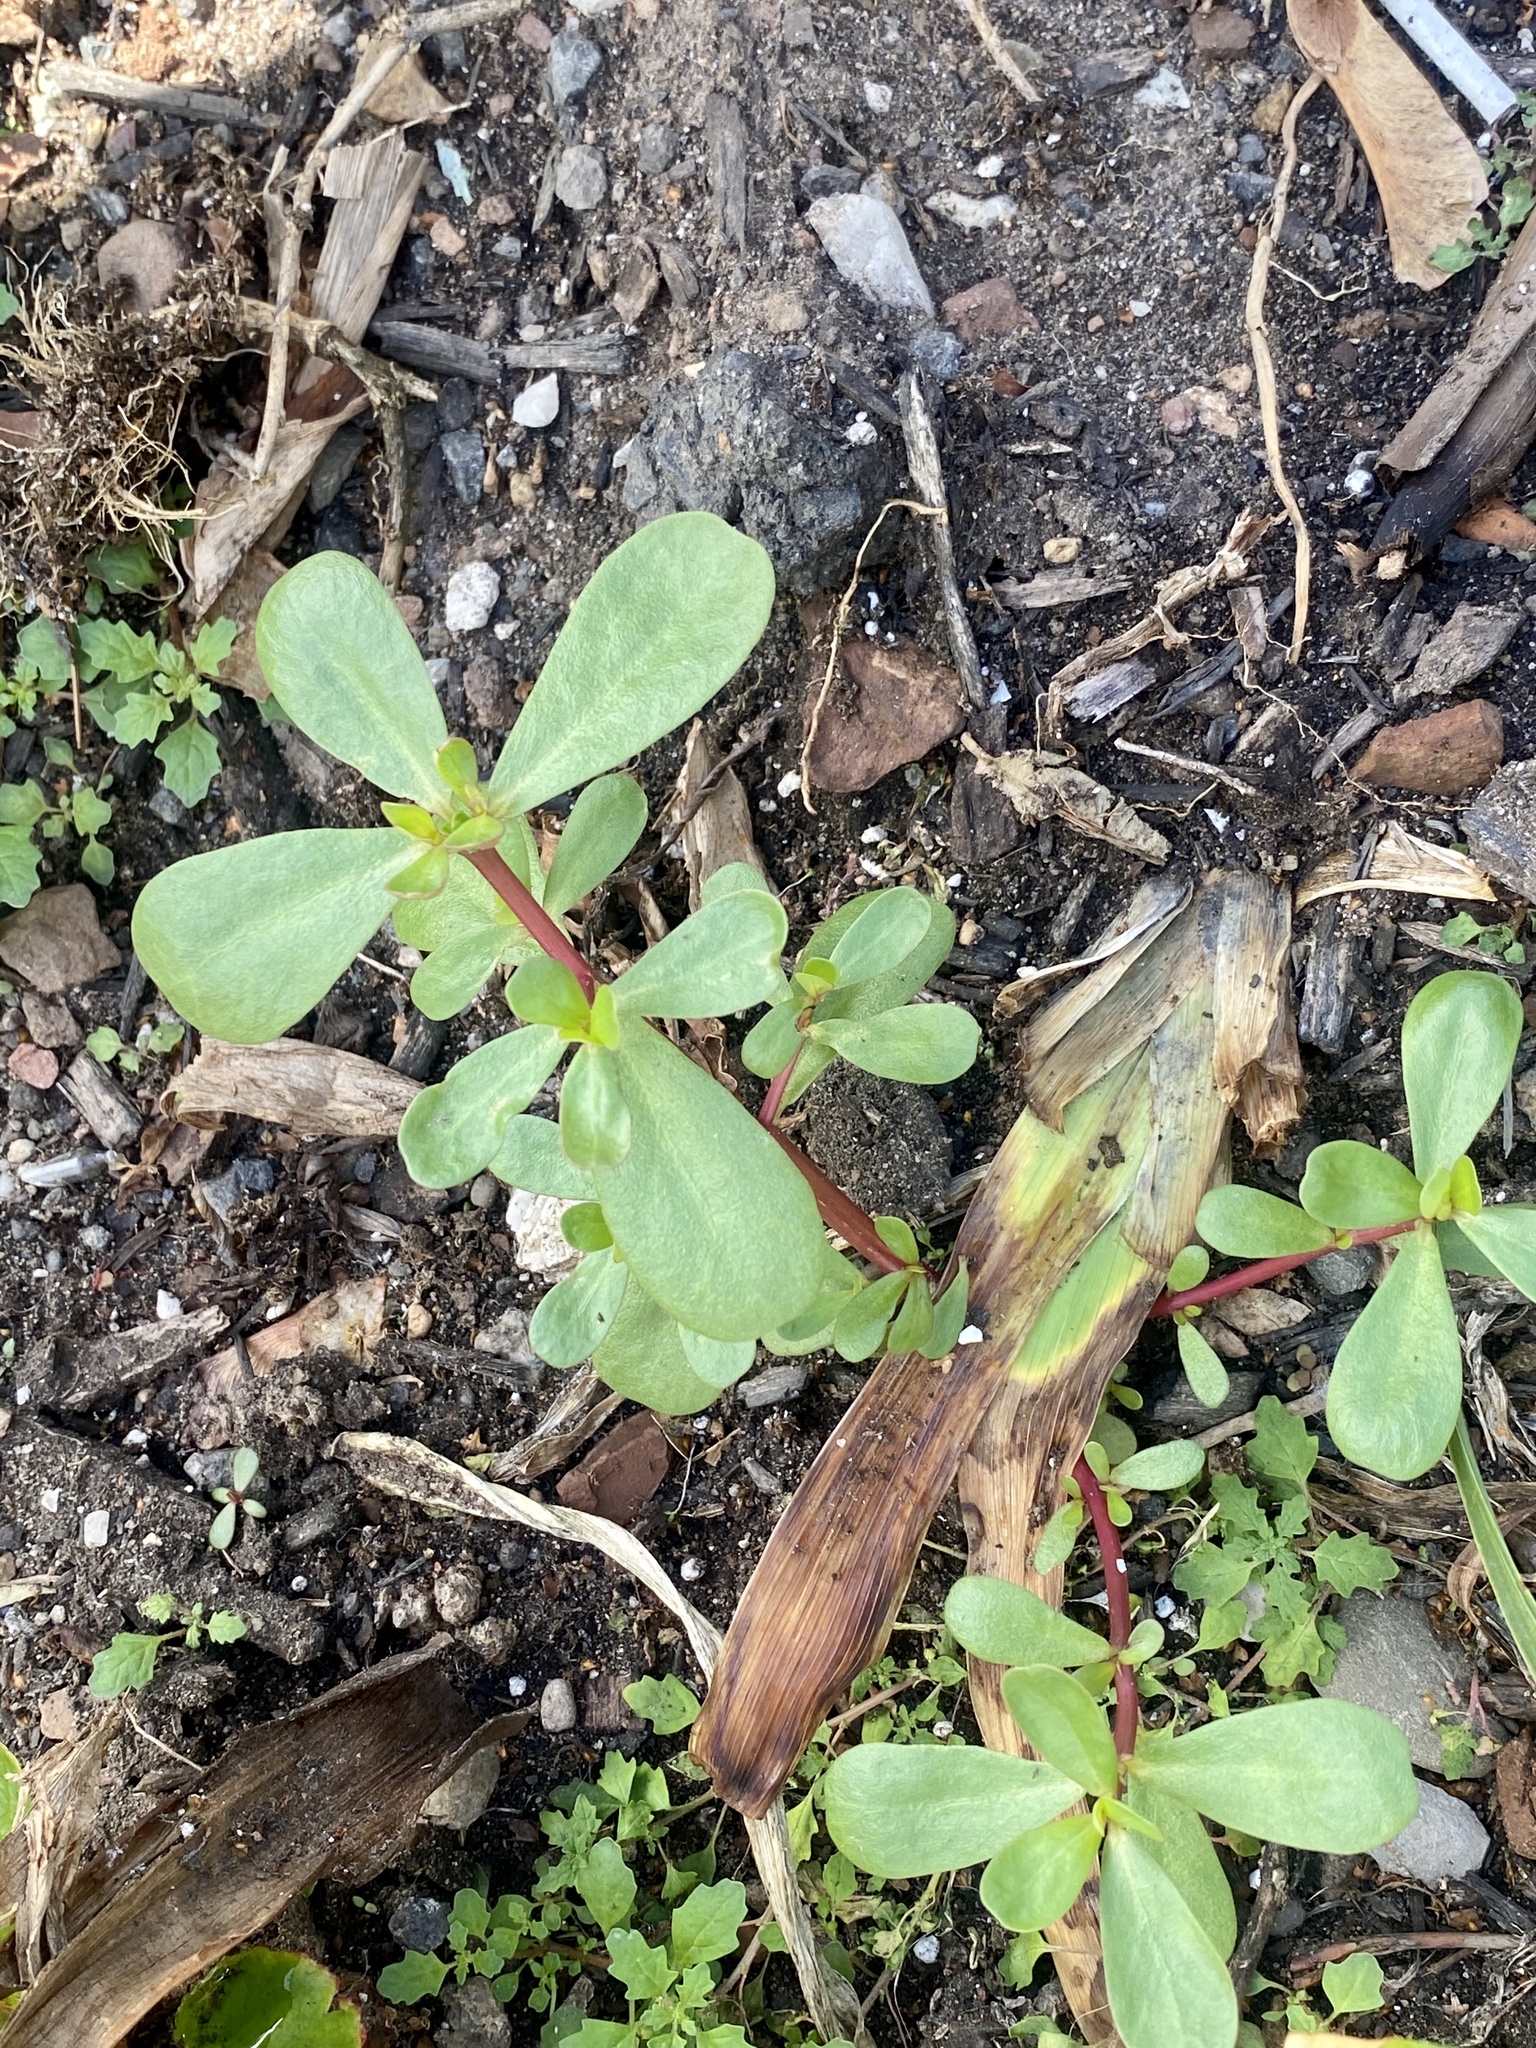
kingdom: Plantae
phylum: Tracheophyta
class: Magnoliopsida
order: Caryophyllales
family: Portulacaceae
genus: Portulaca
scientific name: Portulaca oleracea
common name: Common purslane
